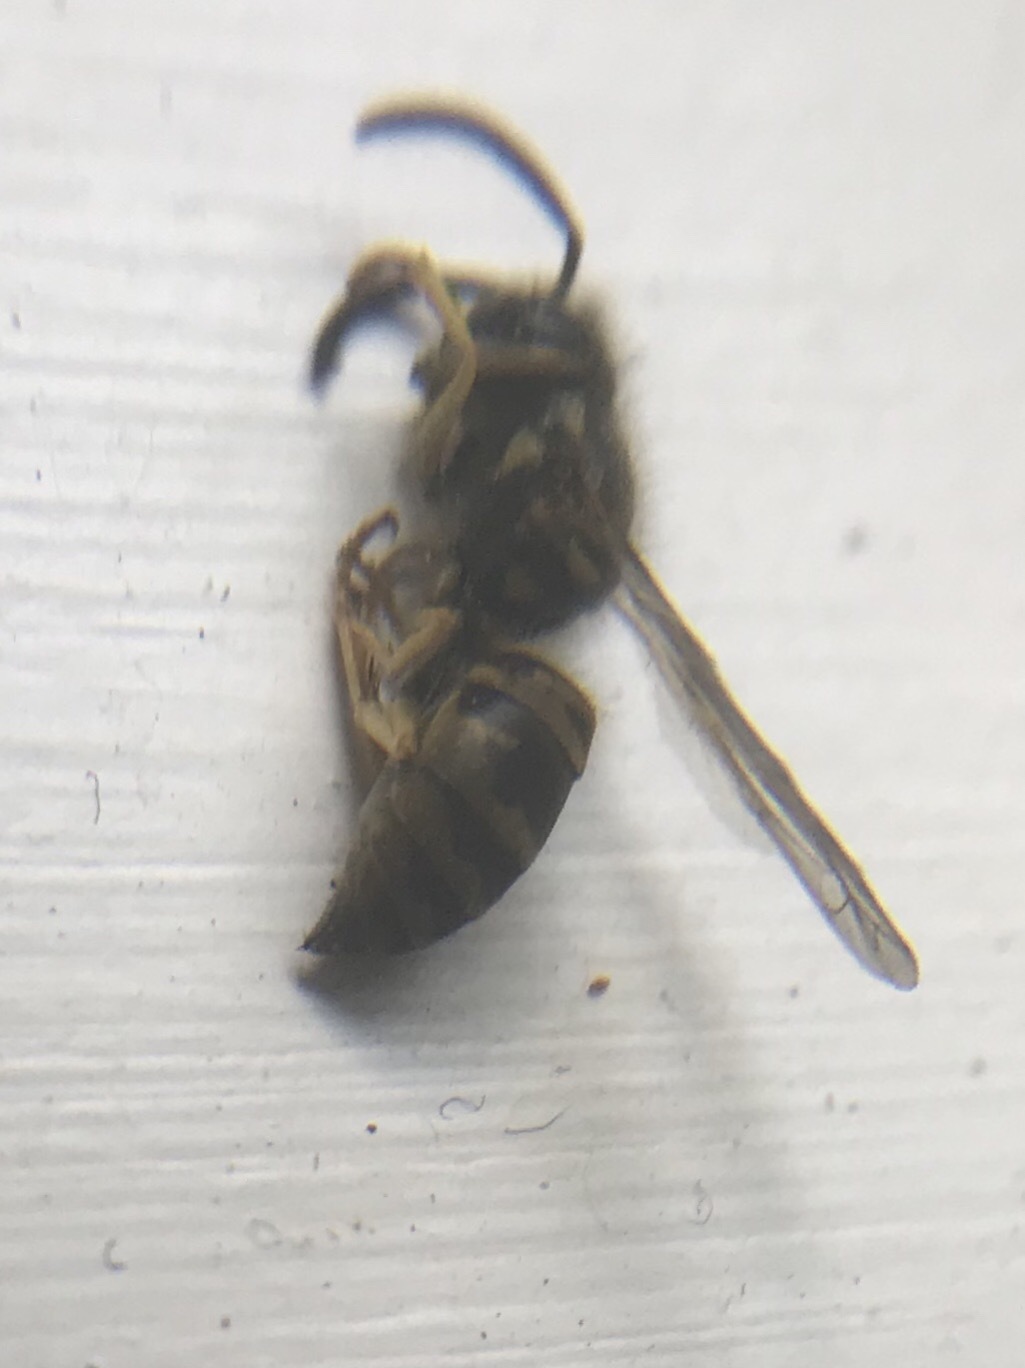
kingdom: Animalia
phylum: Arthropoda
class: Insecta
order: Hymenoptera
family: Vespidae
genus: Vespula
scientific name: Vespula maculifrons
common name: Eastern yellowjacket
